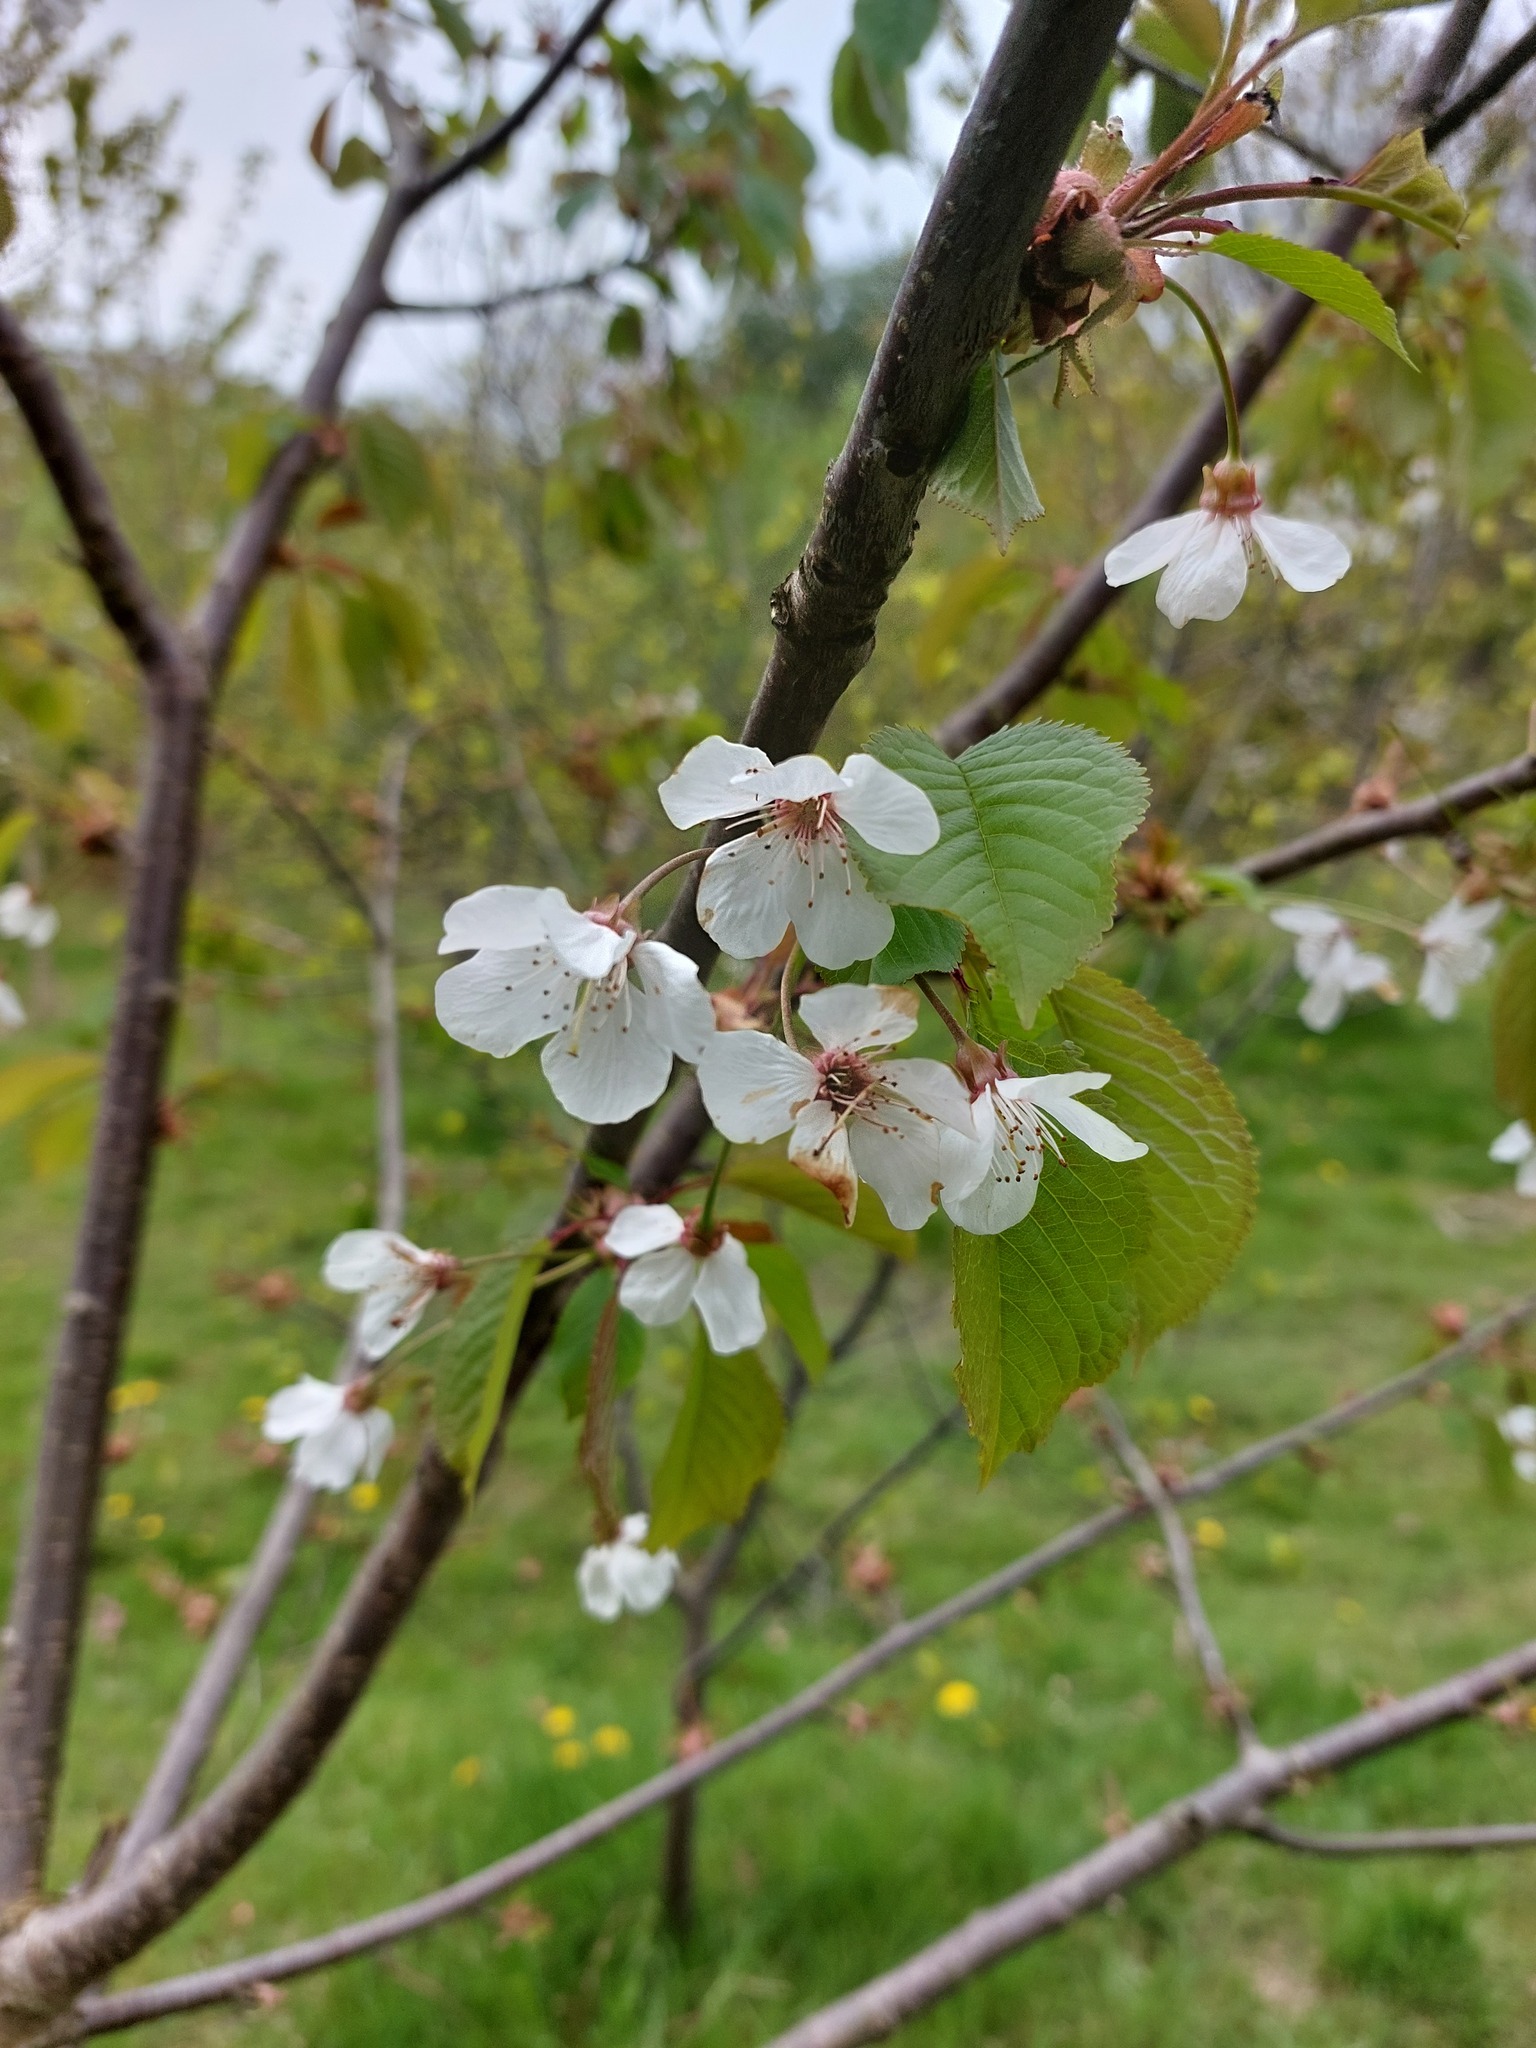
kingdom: Plantae
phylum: Tracheophyta
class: Magnoliopsida
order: Rosales
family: Rosaceae
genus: Prunus
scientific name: Prunus avium
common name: Sweet cherry
